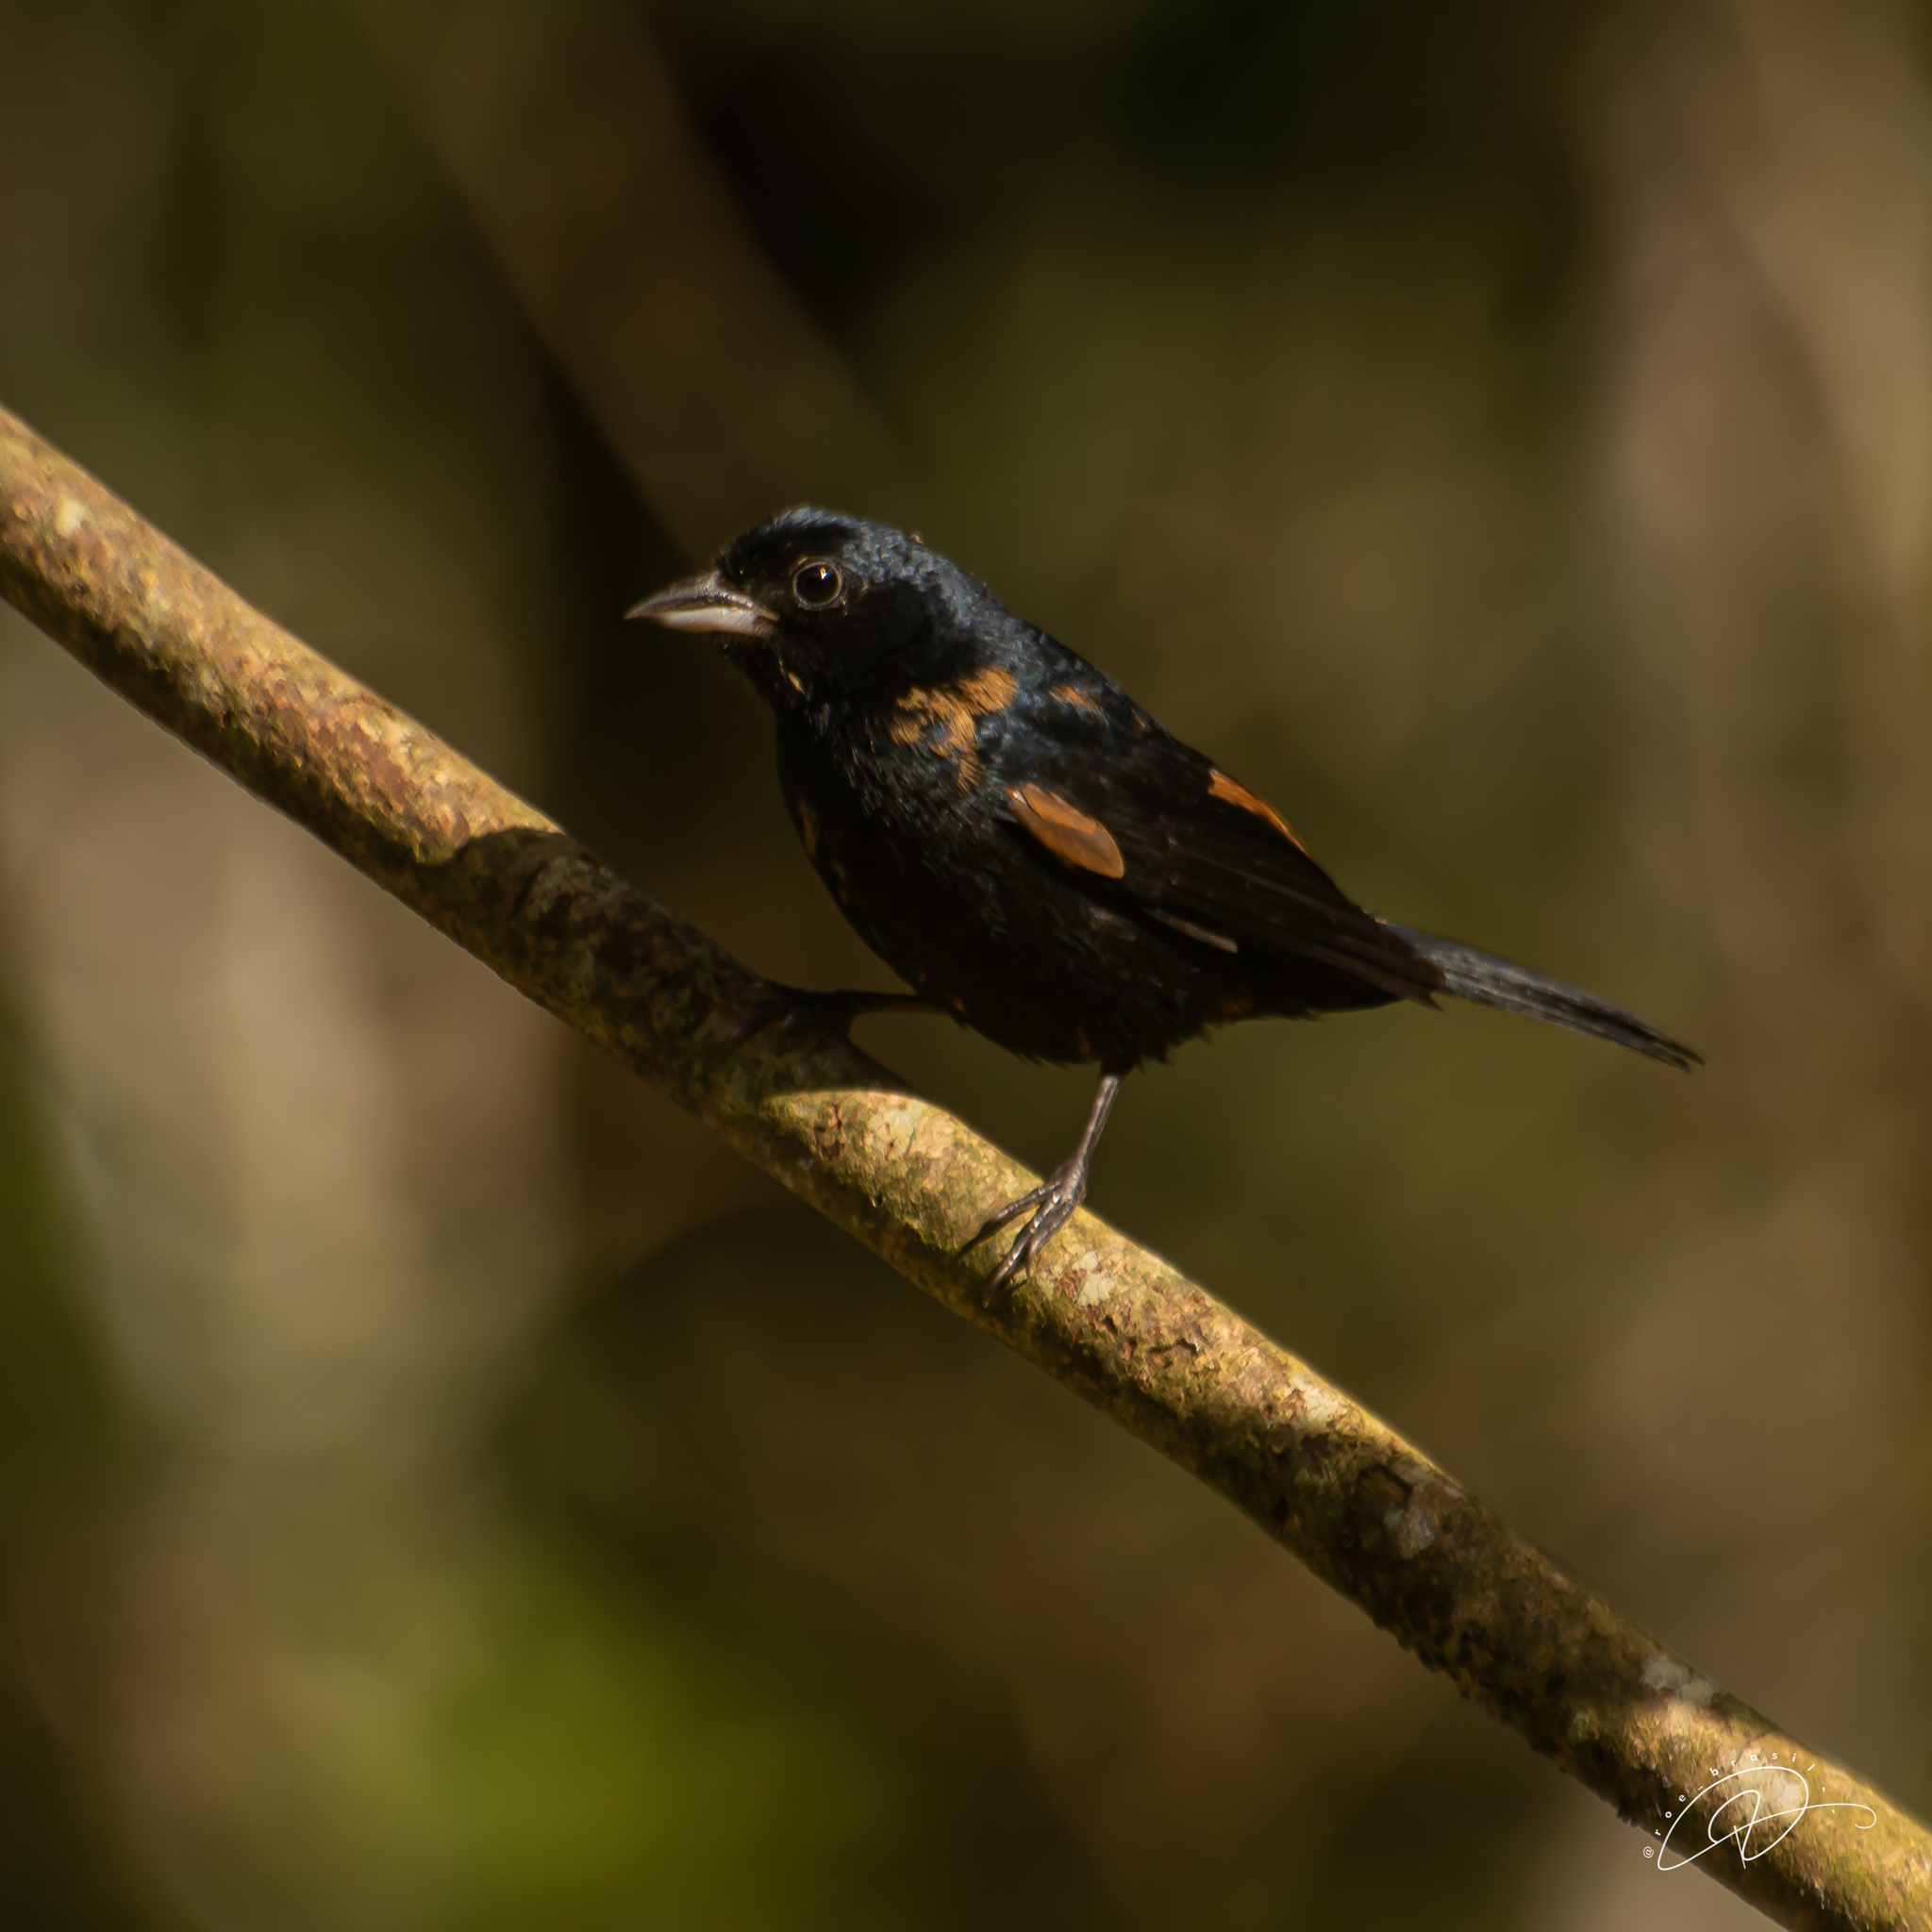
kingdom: Animalia
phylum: Chordata
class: Aves
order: Passeriformes
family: Thraupidae
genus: Tachyphonus
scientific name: Tachyphonus coronatus
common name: Ruby-crowned tanager
